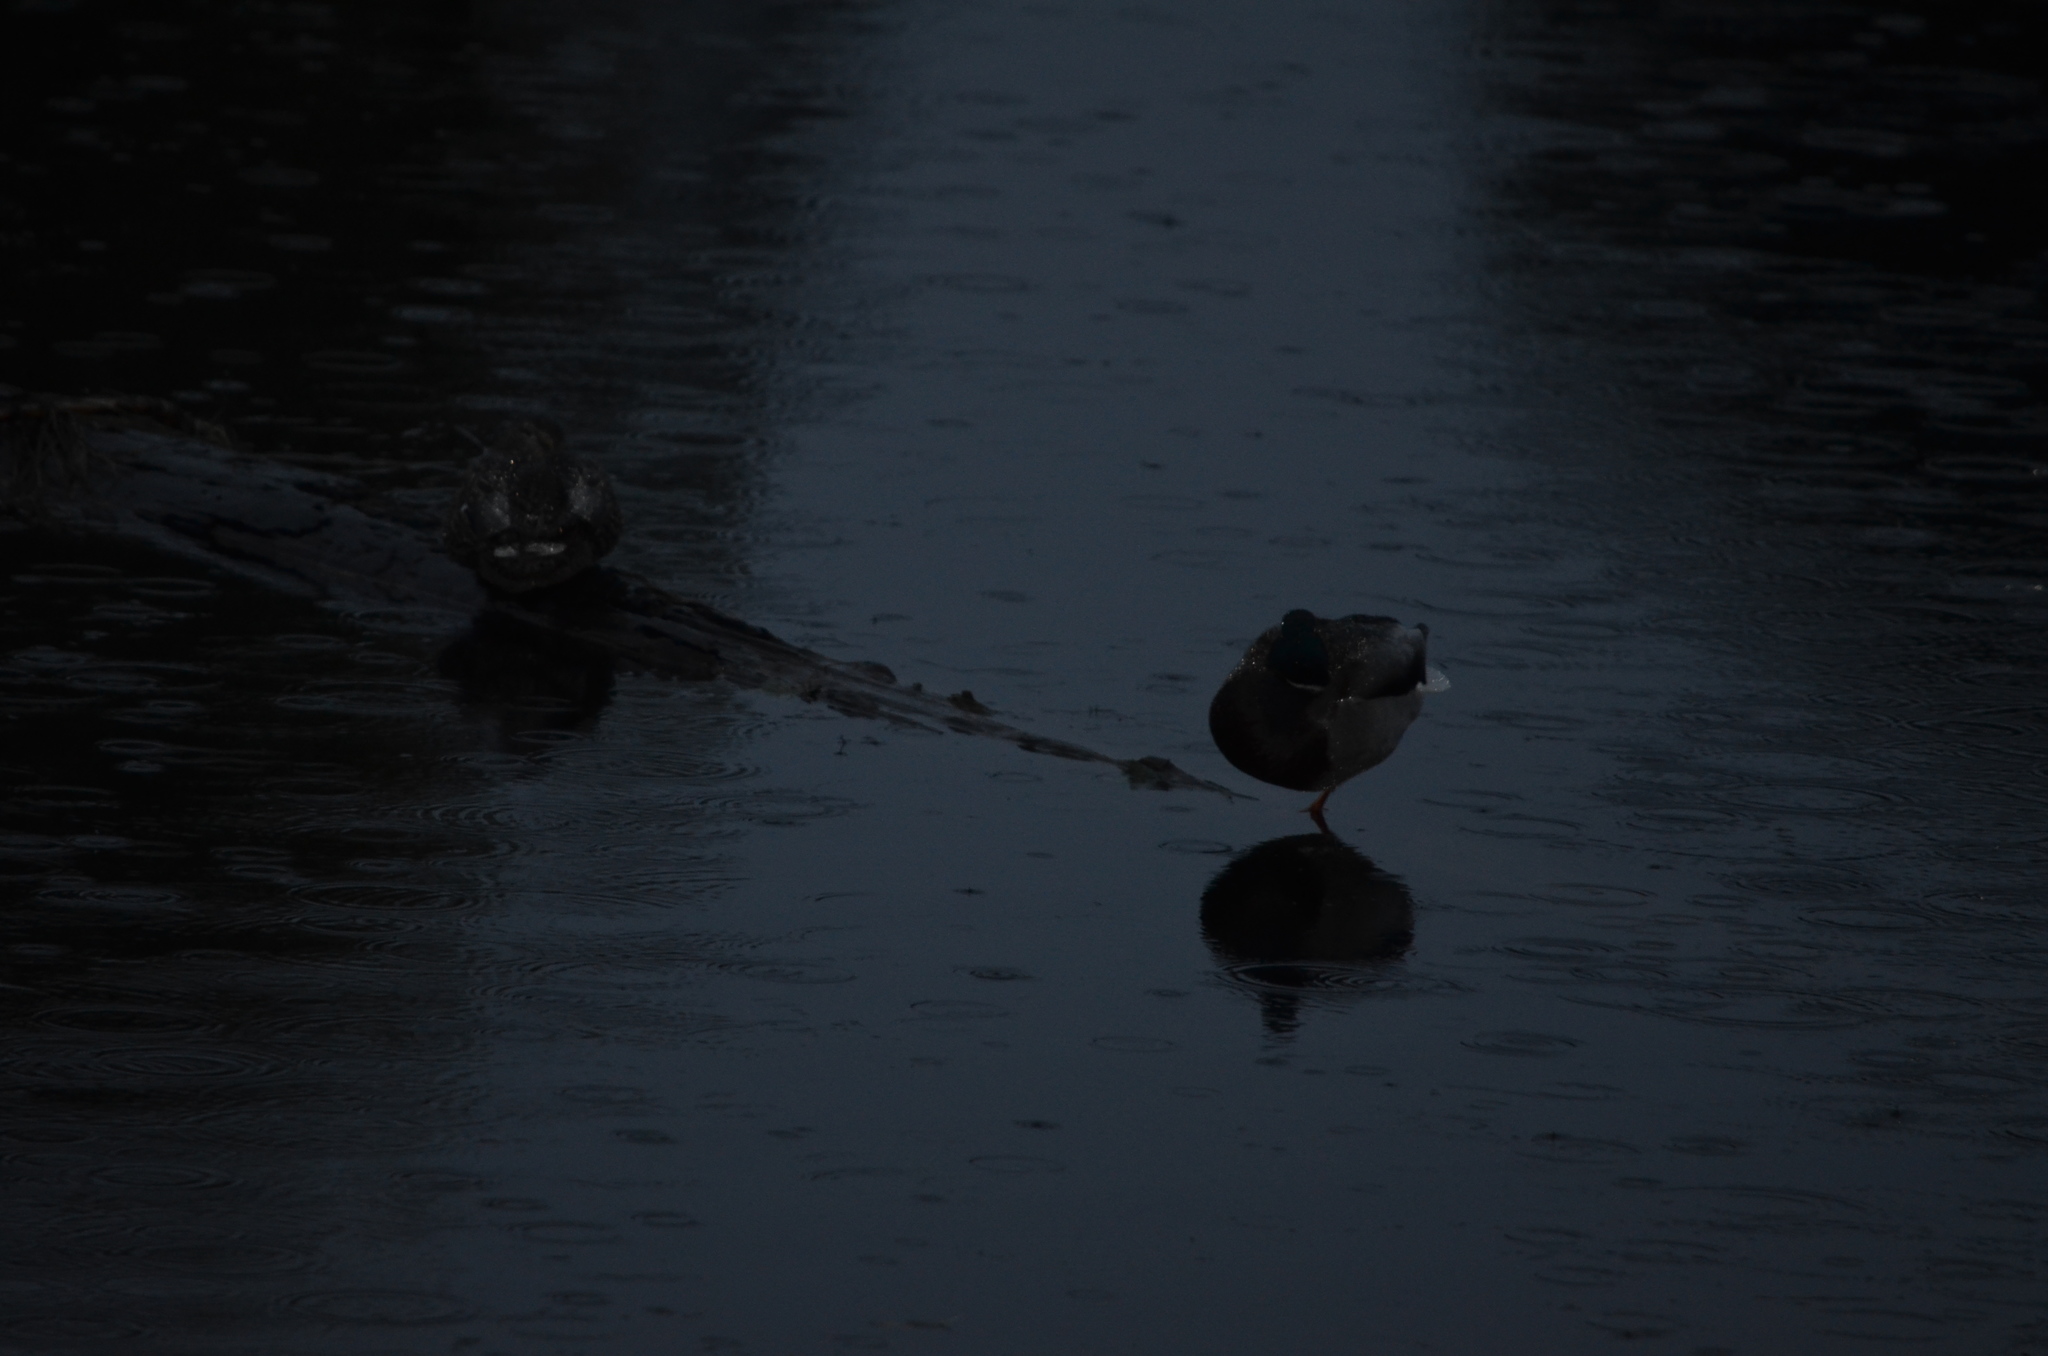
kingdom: Animalia
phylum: Chordata
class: Aves
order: Anseriformes
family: Anatidae
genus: Anas
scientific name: Anas platyrhynchos
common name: Mallard
